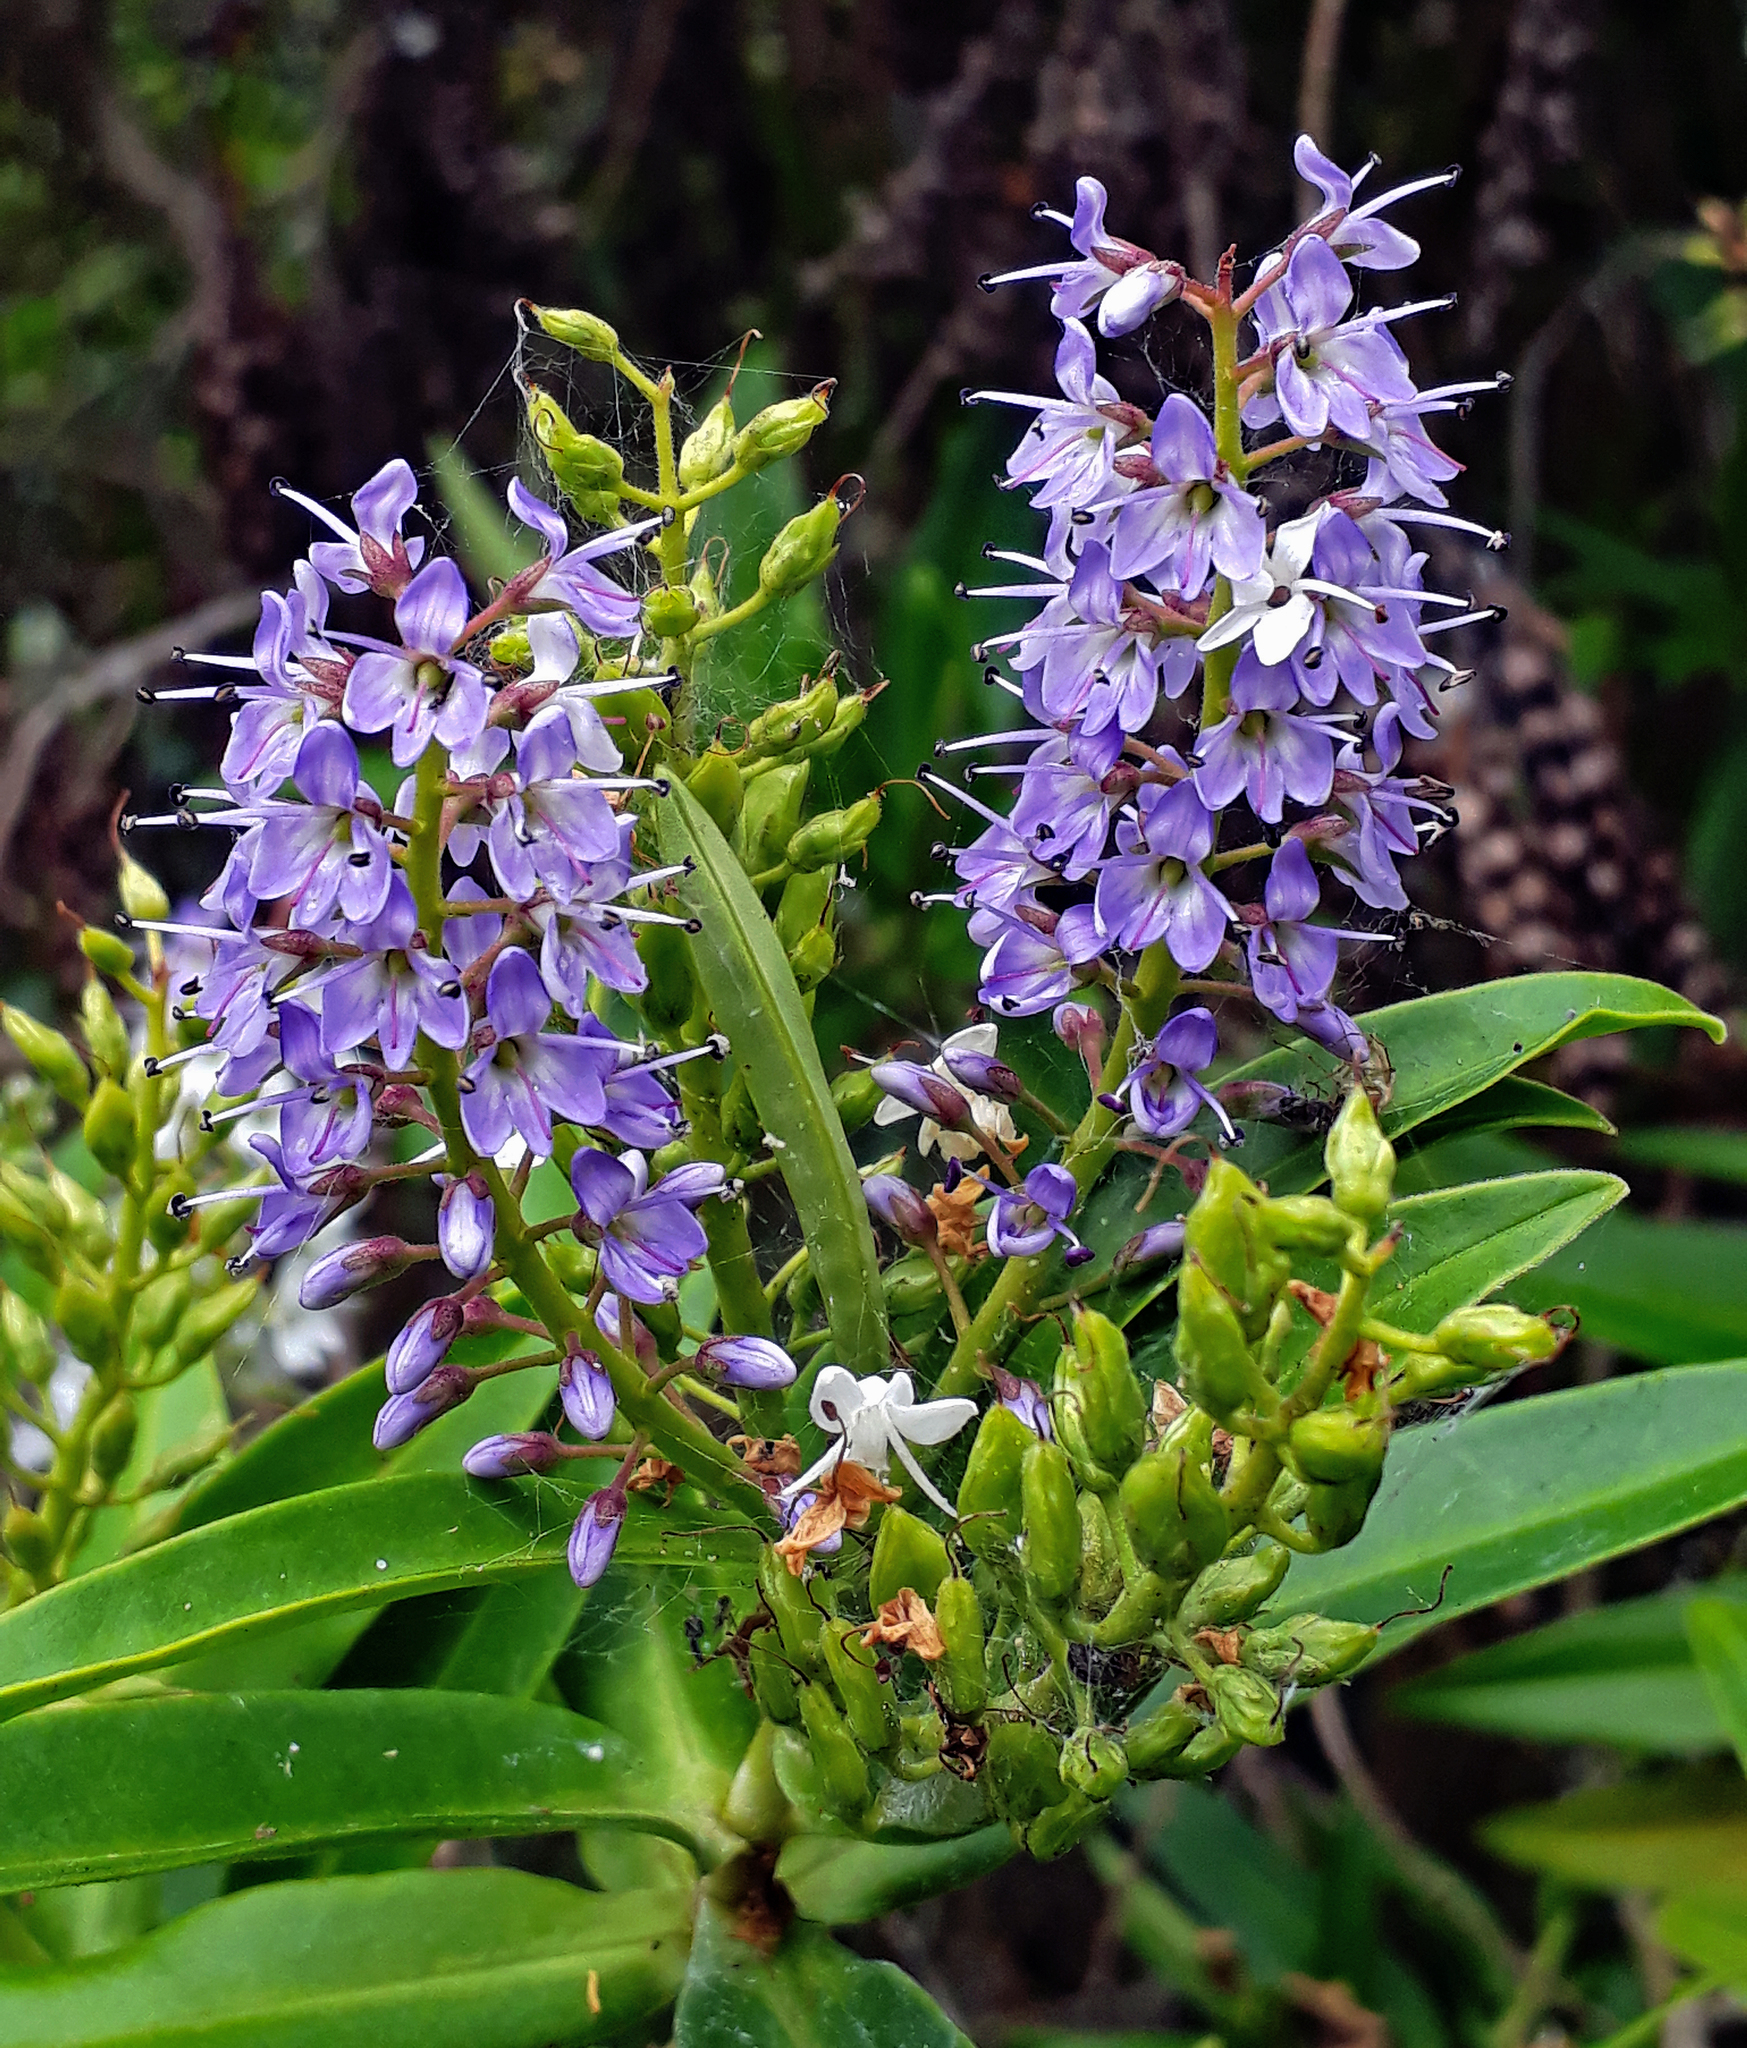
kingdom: Plantae
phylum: Tracheophyta
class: Magnoliopsida
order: Lamiales
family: Plantaginaceae
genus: Veronica
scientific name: Veronica barkeri
